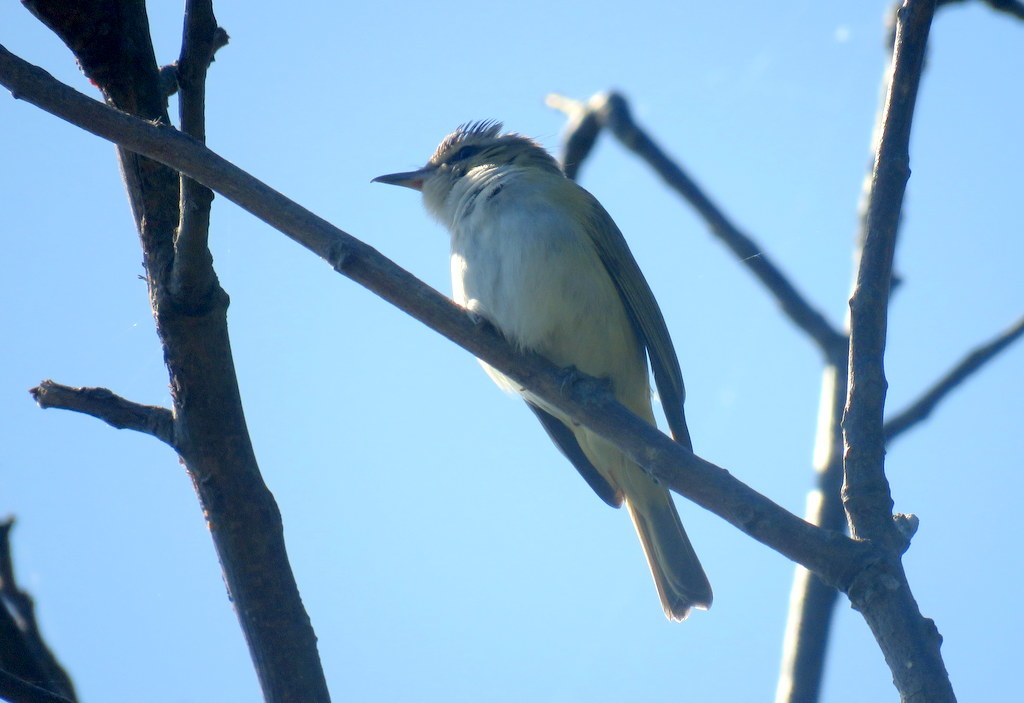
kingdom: Animalia
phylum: Chordata
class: Aves
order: Passeriformes
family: Vireonidae
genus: Vireo
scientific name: Vireo olivaceus
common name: Red-eyed vireo
